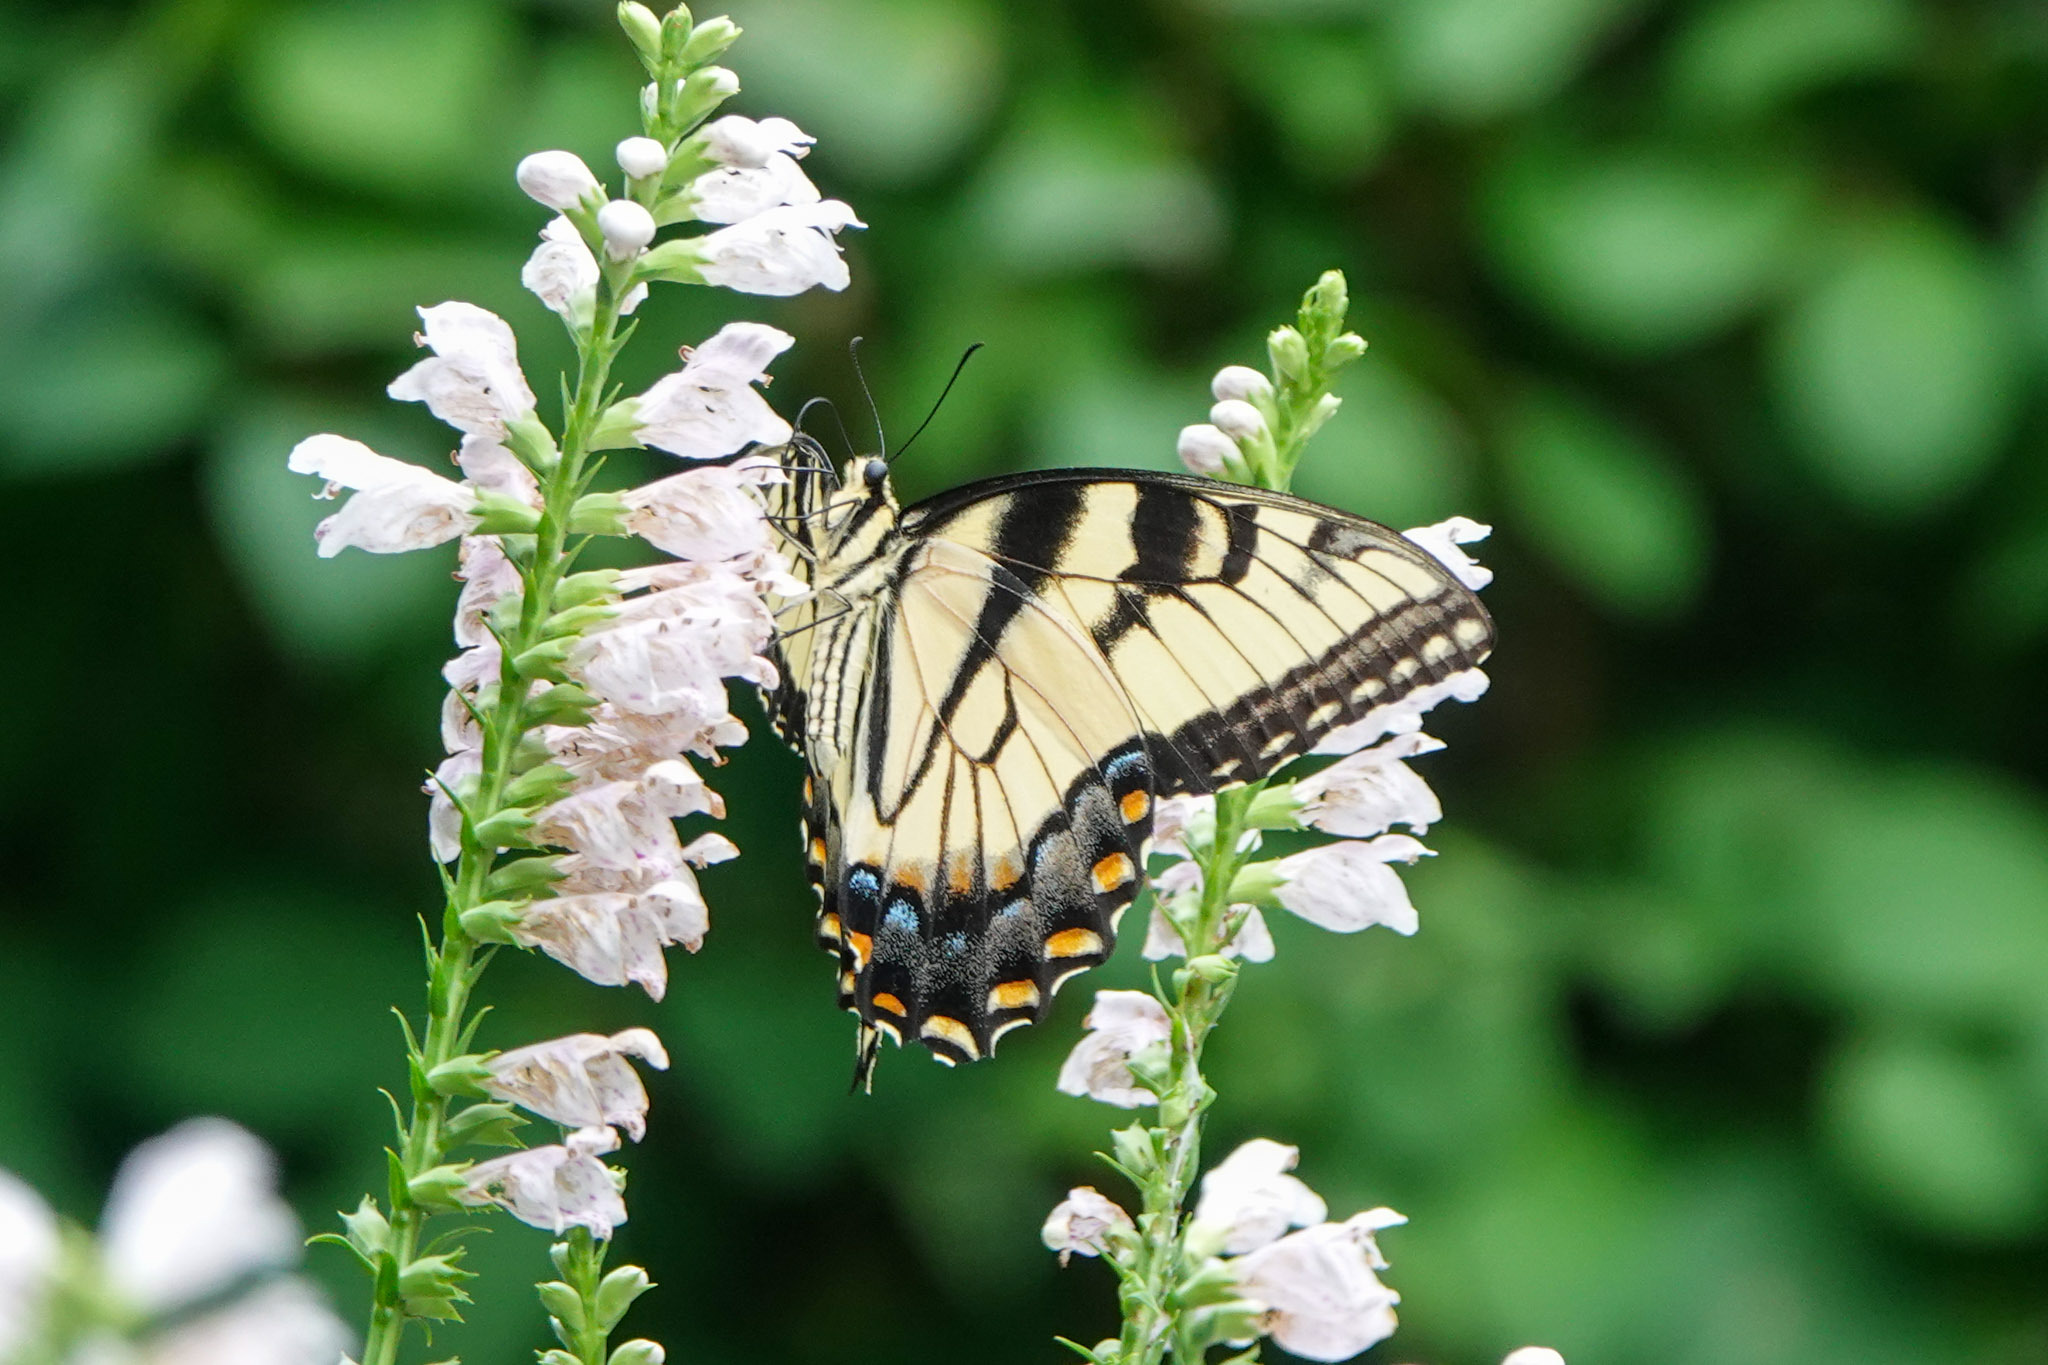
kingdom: Animalia
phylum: Arthropoda
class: Insecta
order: Lepidoptera
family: Papilionidae
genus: Papilio
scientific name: Papilio glaucus
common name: Tiger swallowtail
